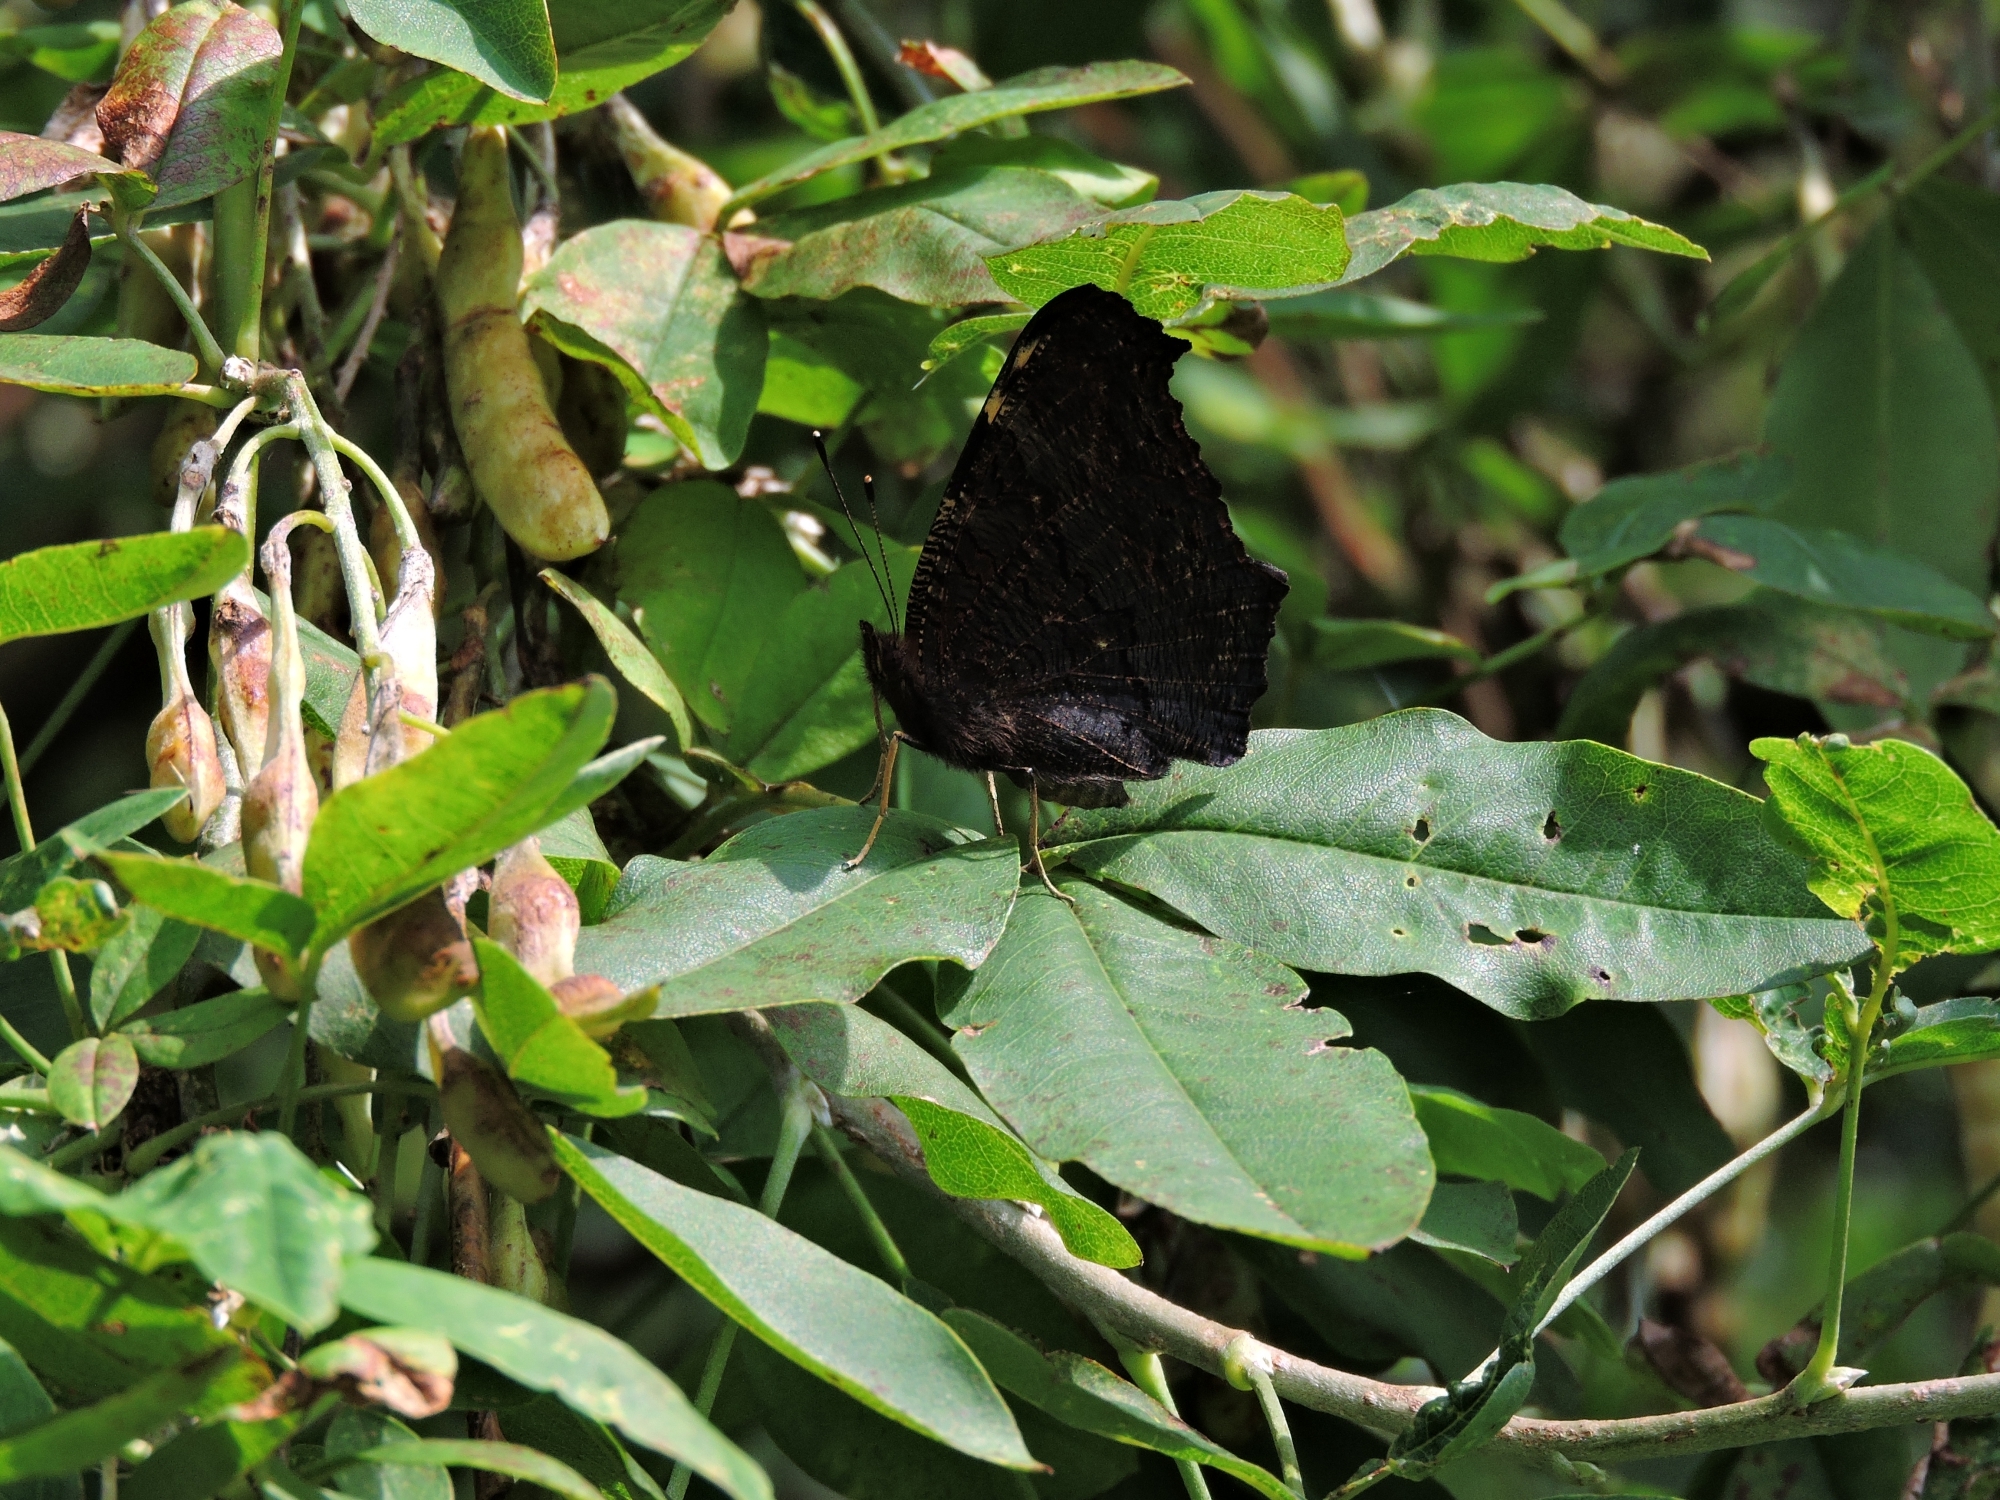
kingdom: Animalia
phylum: Arthropoda
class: Insecta
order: Lepidoptera
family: Nymphalidae
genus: Aglais
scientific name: Aglais io
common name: Peacock
